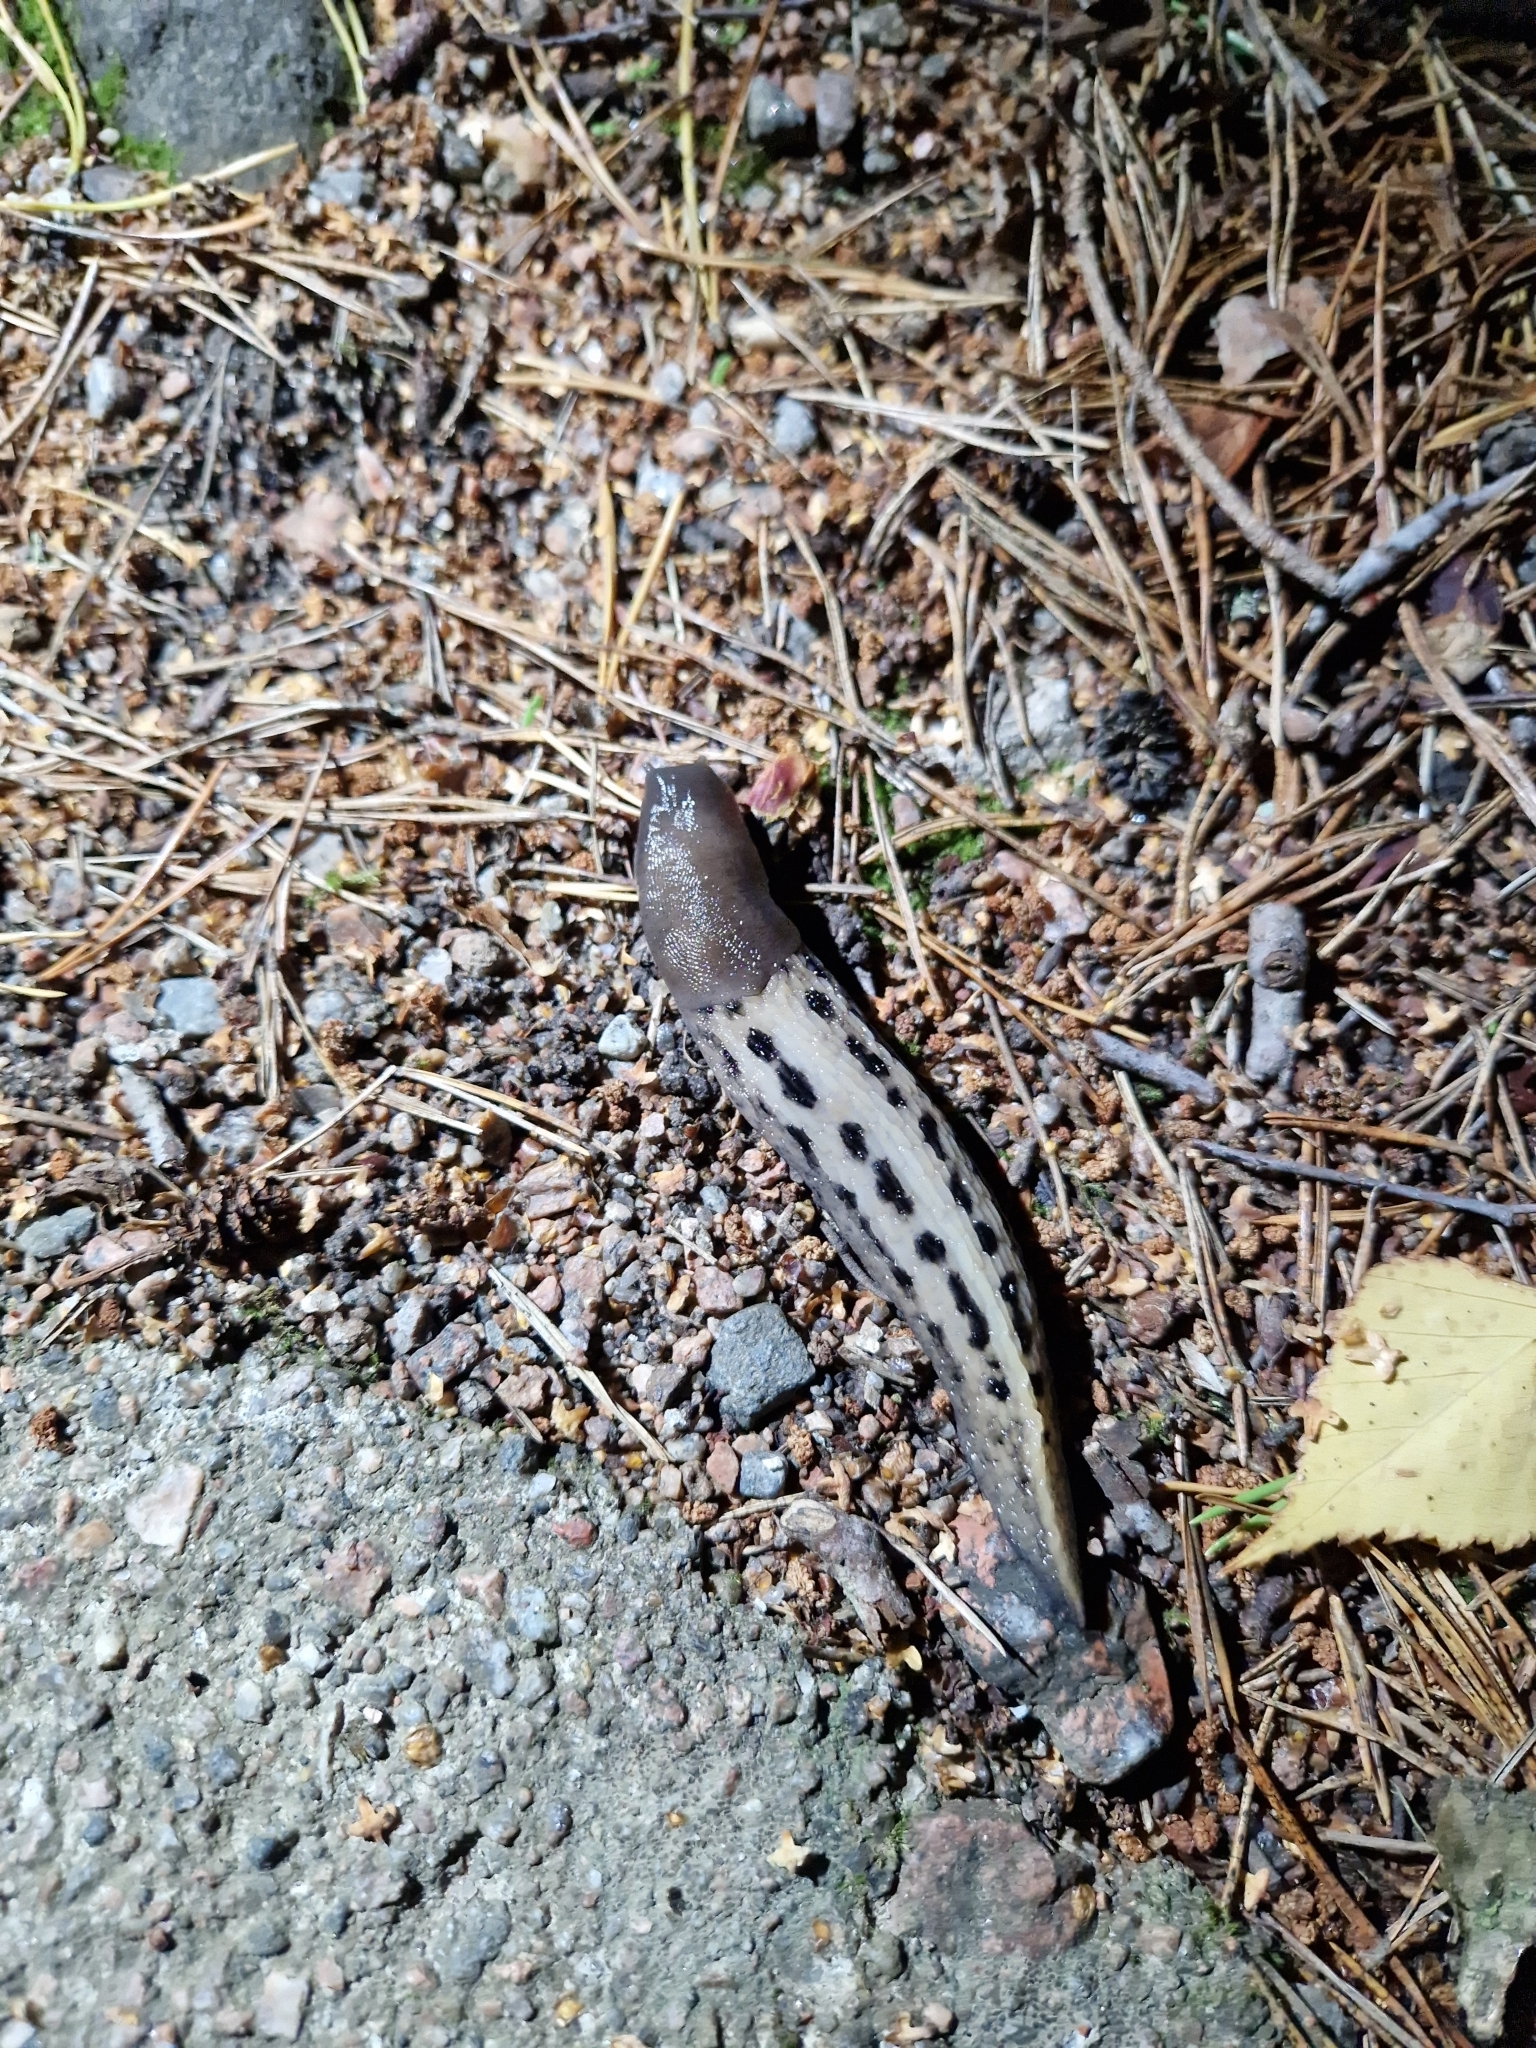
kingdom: Animalia
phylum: Mollusca
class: Gastropoda
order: Stylommatophora
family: Limacidae
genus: Limax
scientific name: Limax cinereoniger
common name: Ash-black slug
